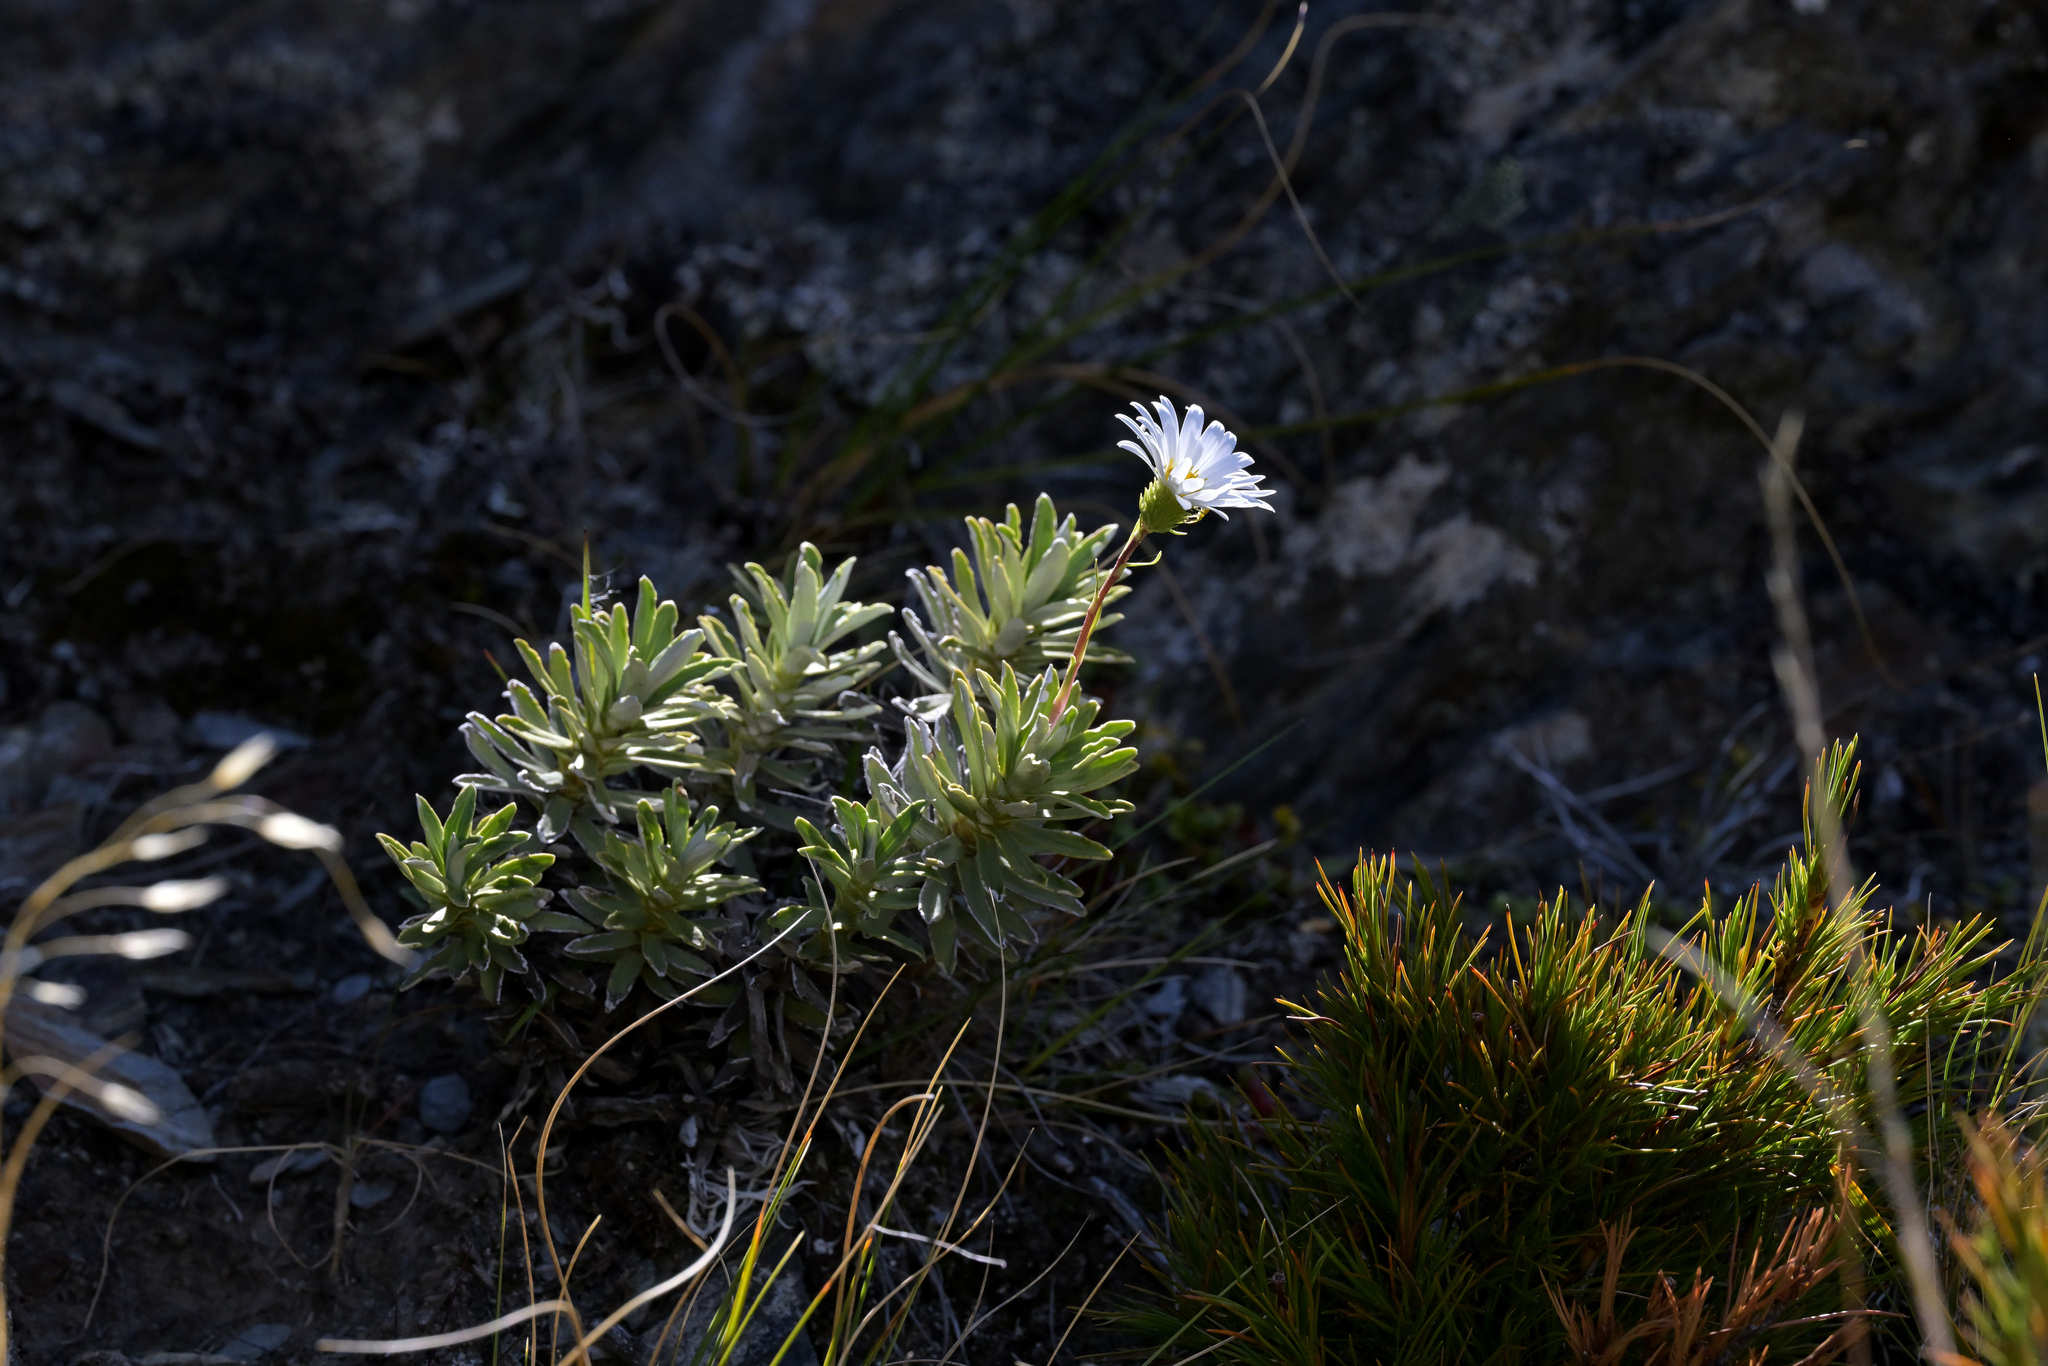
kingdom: Plantae
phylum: Tracheophyta
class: Magnoliopsida
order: Asterales
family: Asteraceae
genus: Celmisia
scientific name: Celmisia angustifolia
